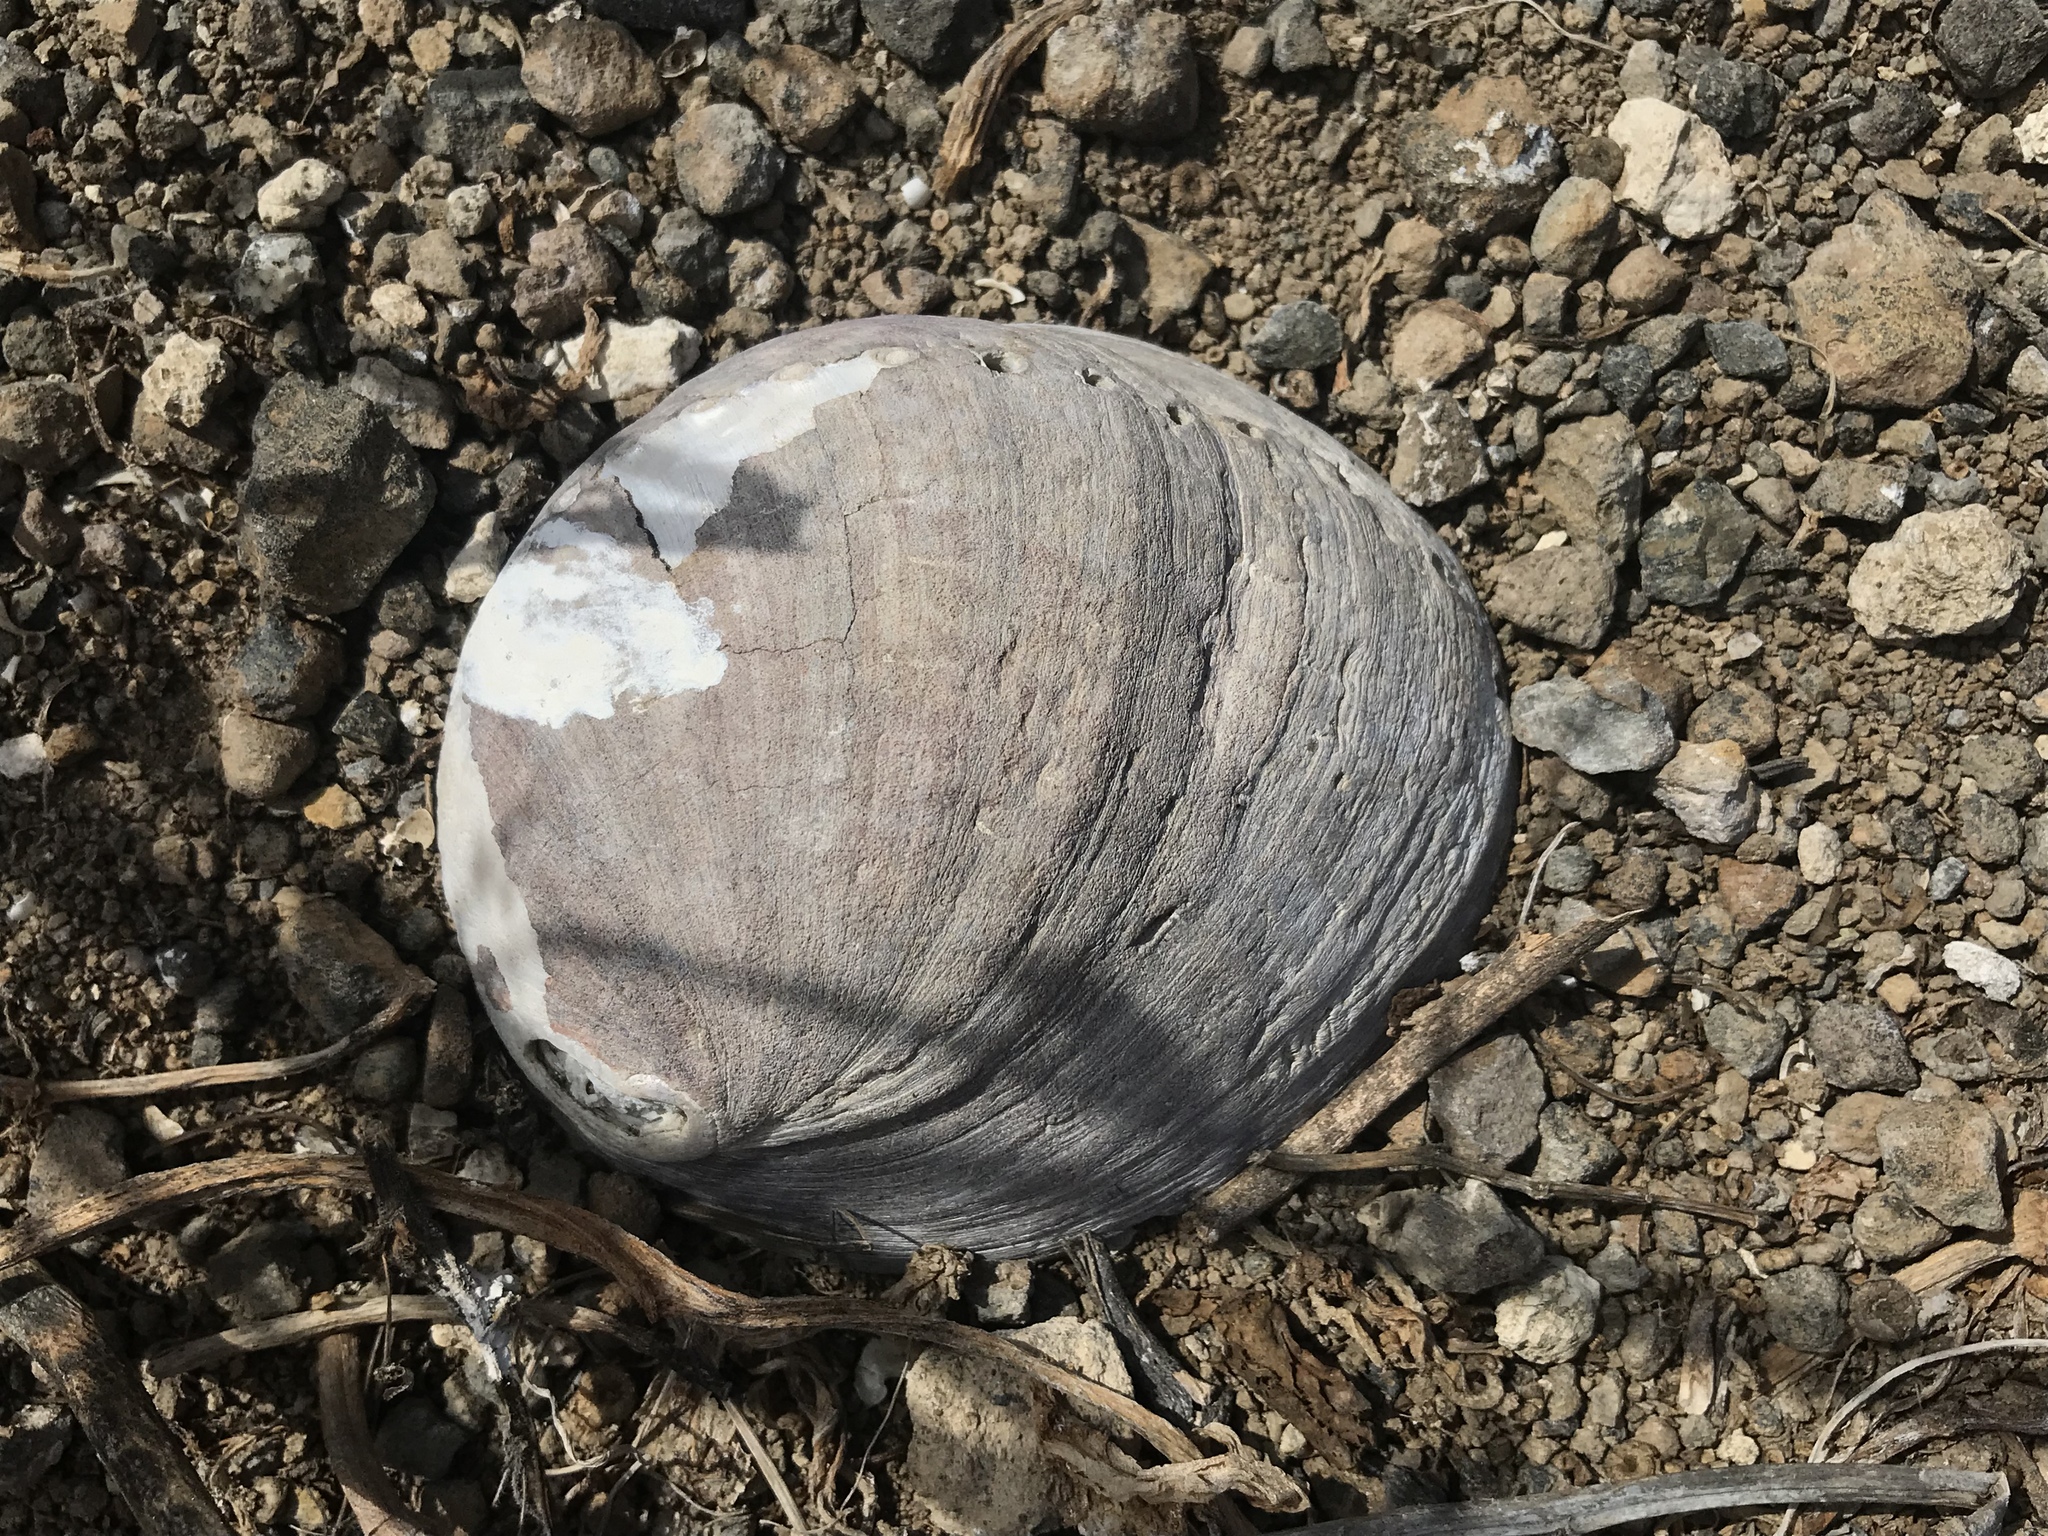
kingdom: Animalia
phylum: Mollusca
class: Gastropoda
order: Lepetellida
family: Haliotidae
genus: Haliotis
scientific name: Haliotis cracherodii
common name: Black abalone
